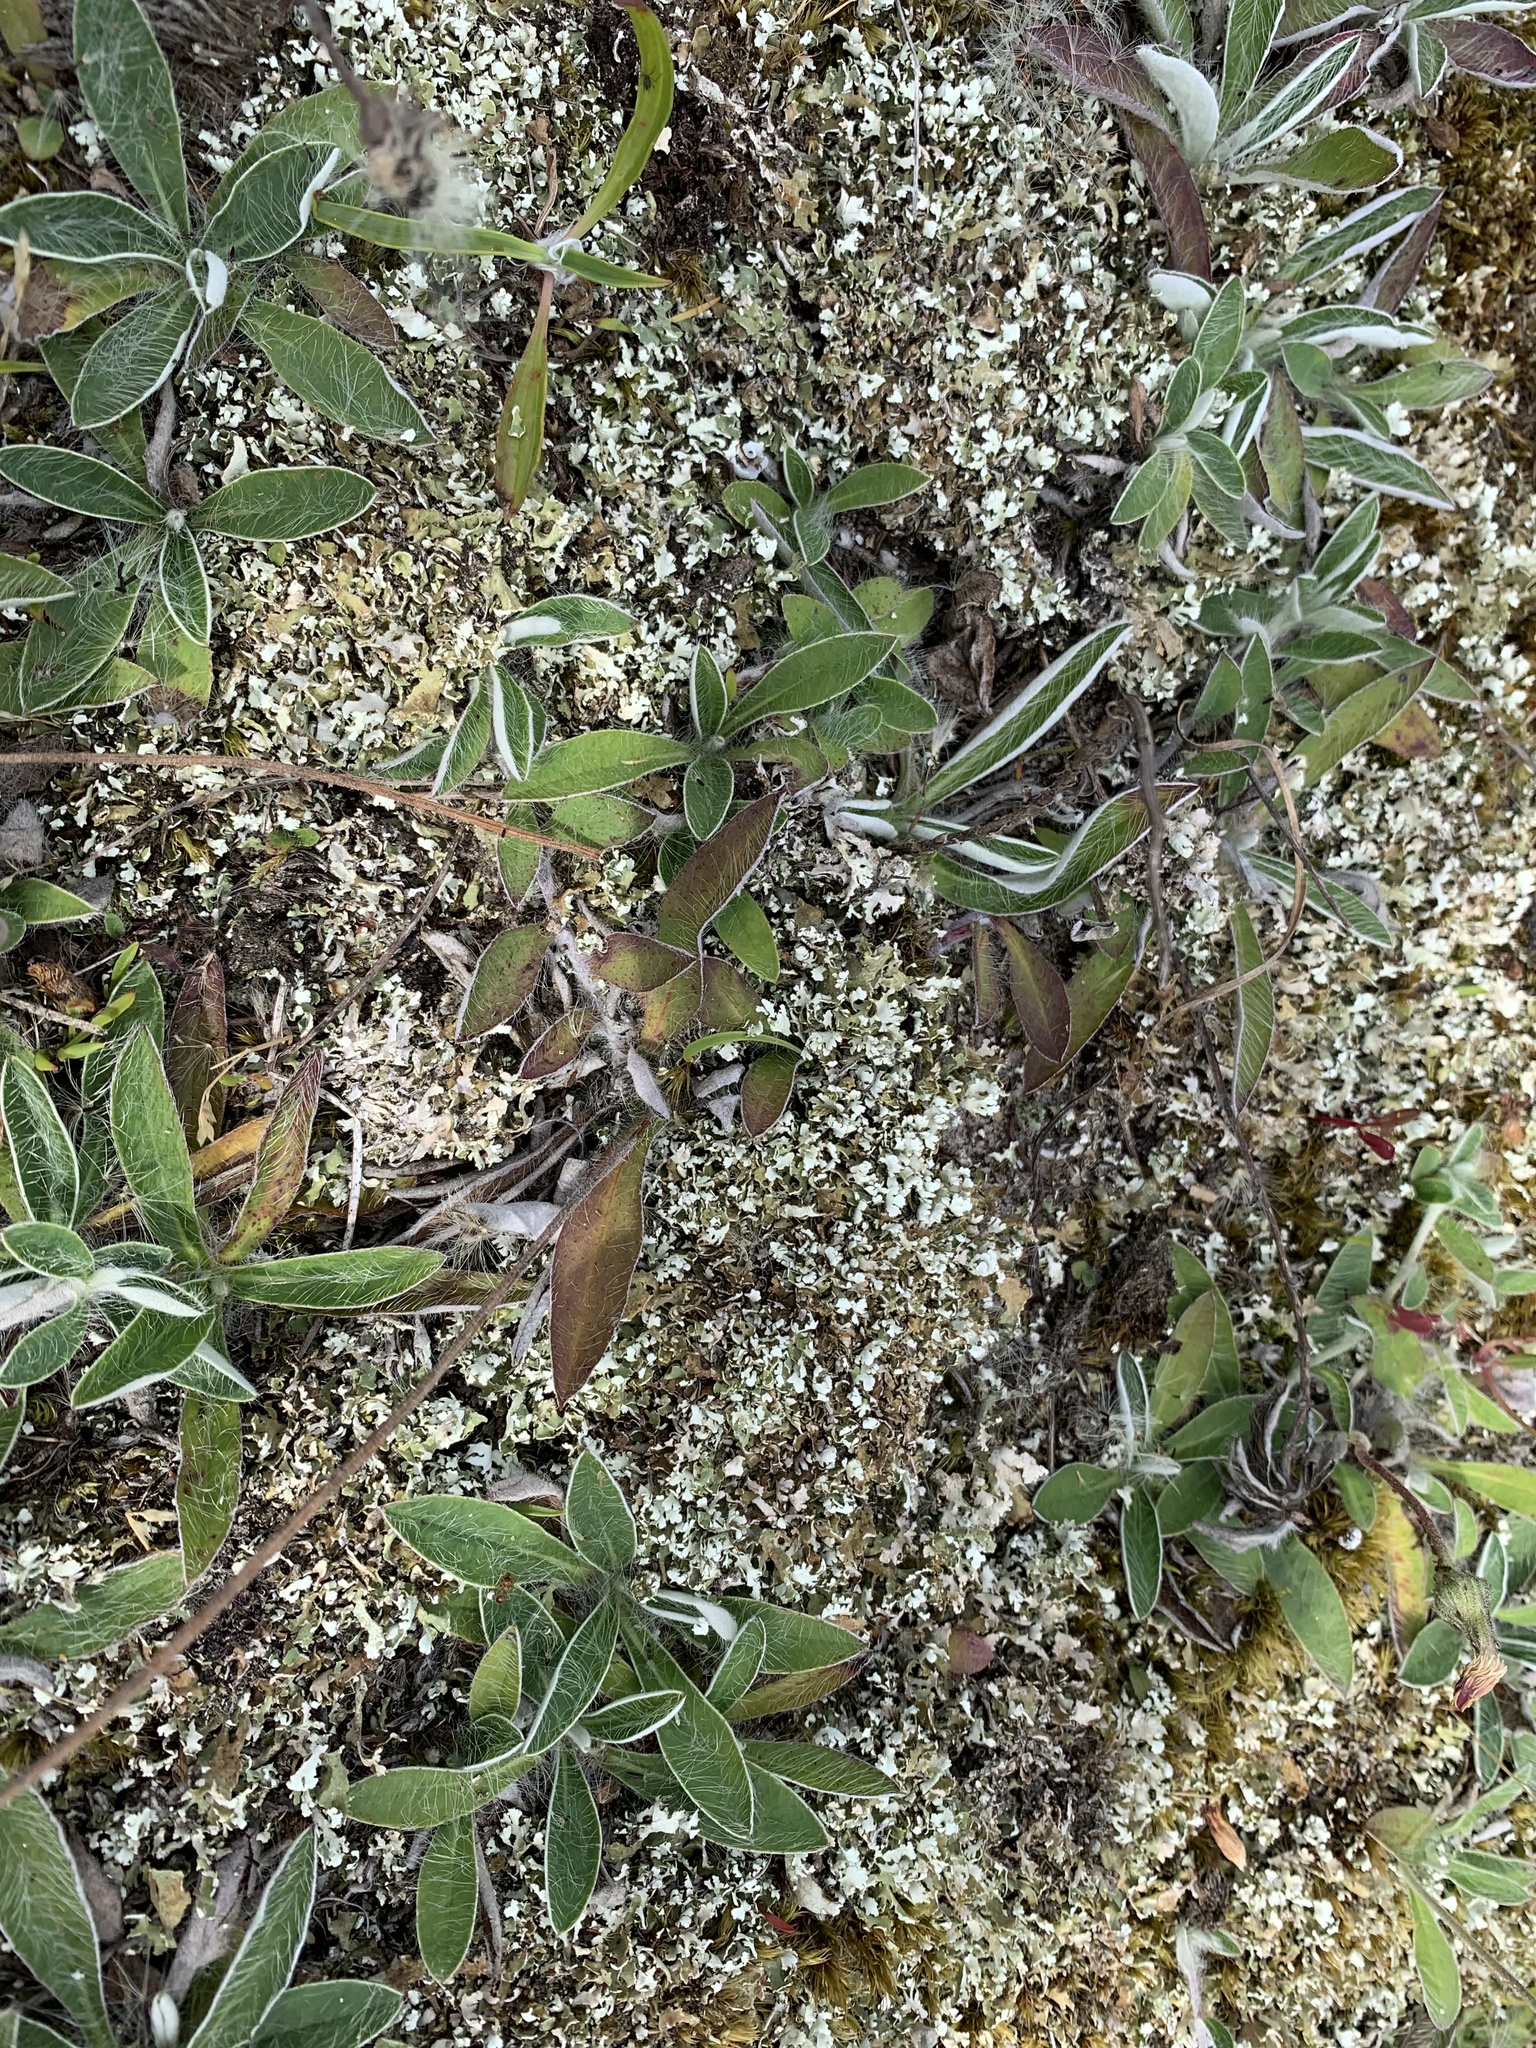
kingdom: Fungi
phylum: Ascomycota
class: Lecanoromycetes
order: Lecanorales
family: Cladoniaceae
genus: Cladonia
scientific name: Cladonia foliacea
